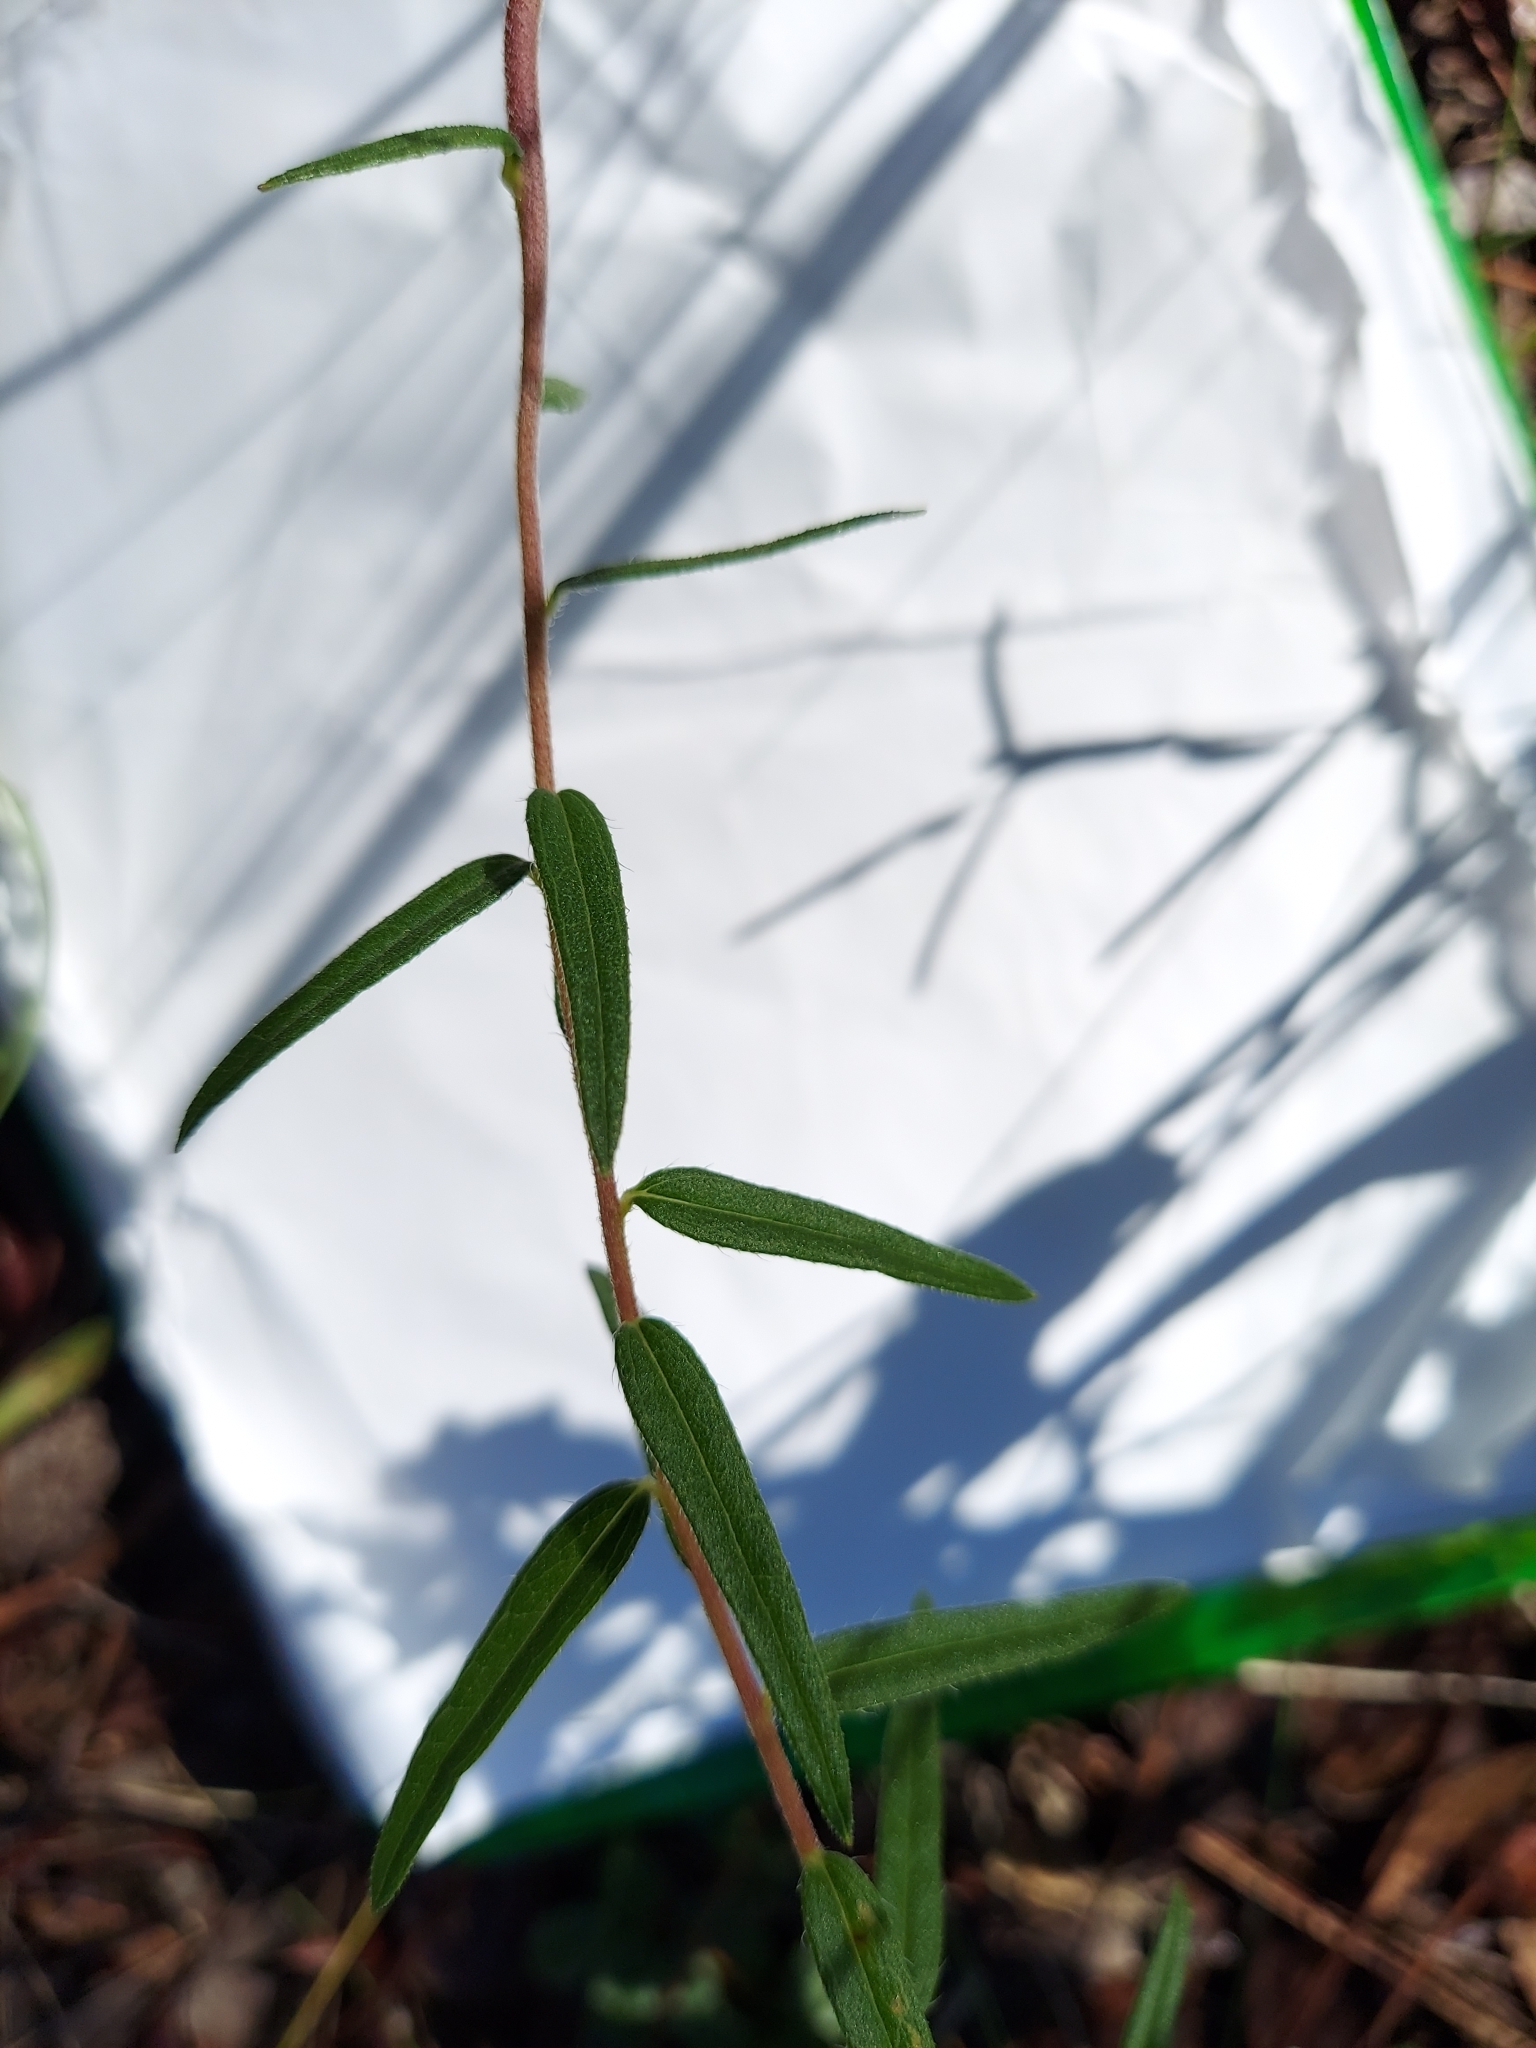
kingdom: Plantae
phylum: Tracheophyta
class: Magnoliopsida
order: Asterales
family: Asteraceae
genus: Phoebanthus
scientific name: Phoebanthus grandiflora
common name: Florida false sunflower
